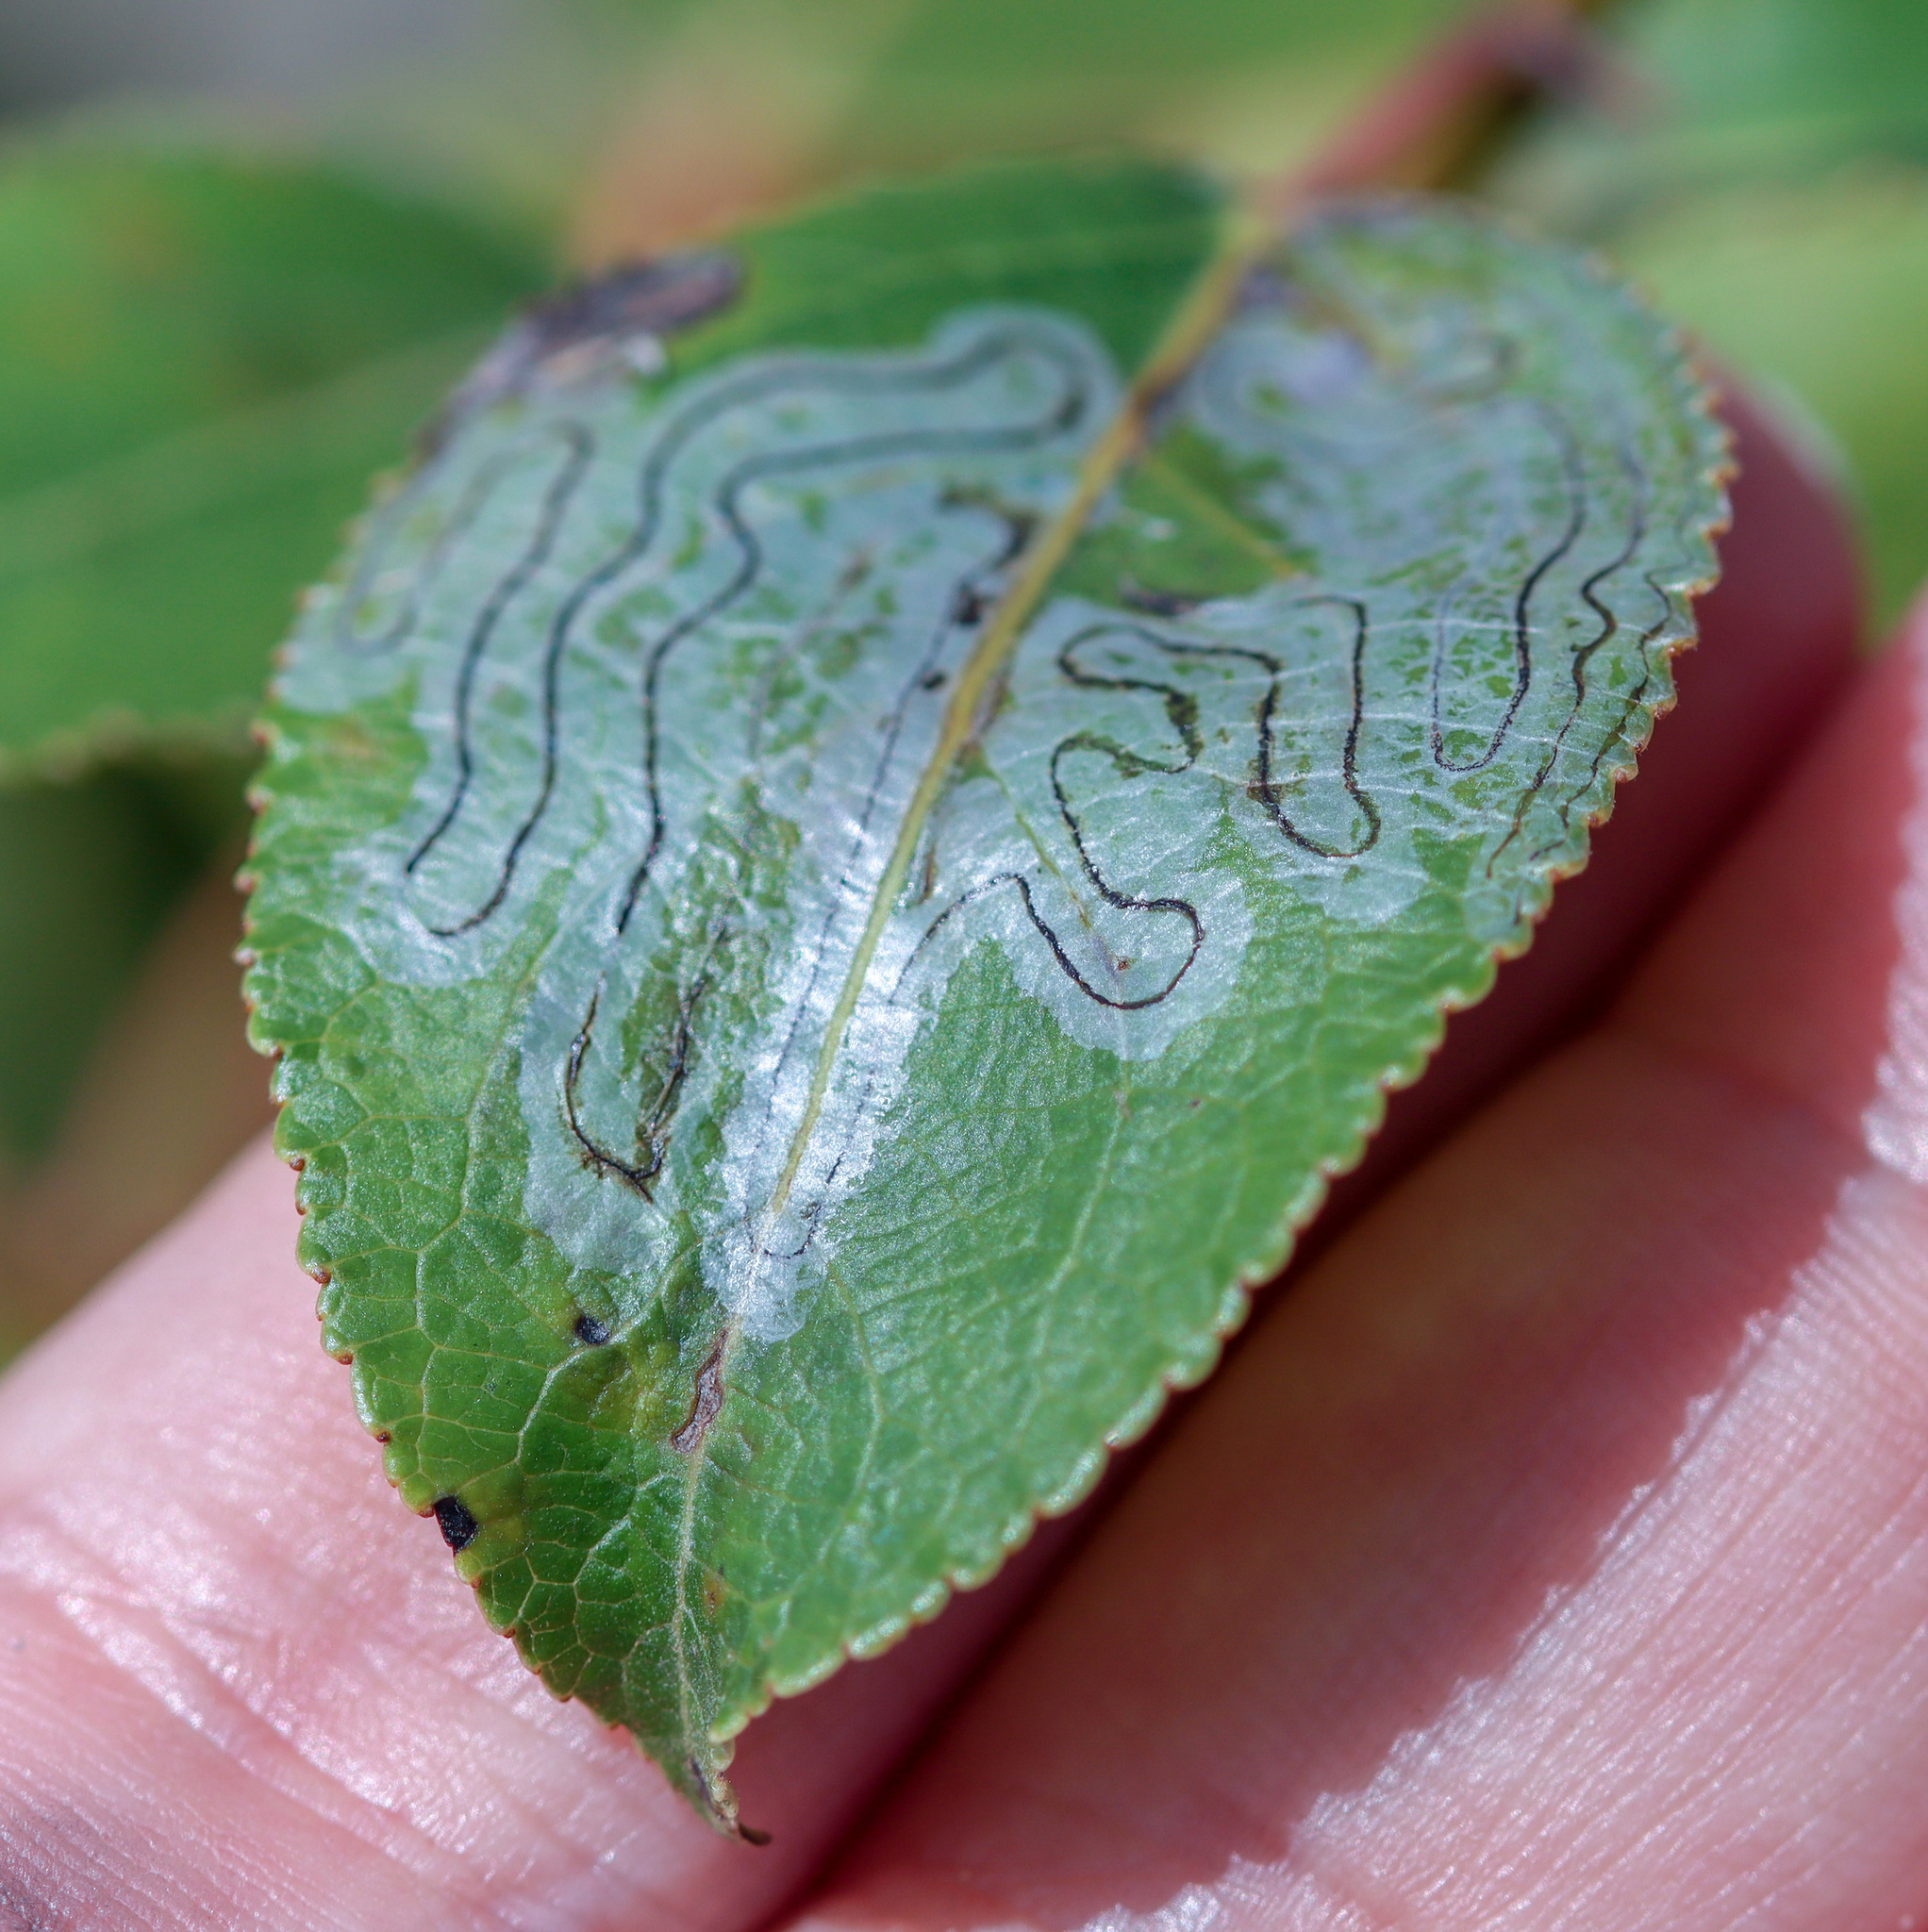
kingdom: Animalia
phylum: Arthropoda
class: Insecta
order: Lepidoptera
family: Gracillariidae
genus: Phyllocnistis
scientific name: Phyllocnistis populiella
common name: Aspen serpentine leafminer moth
